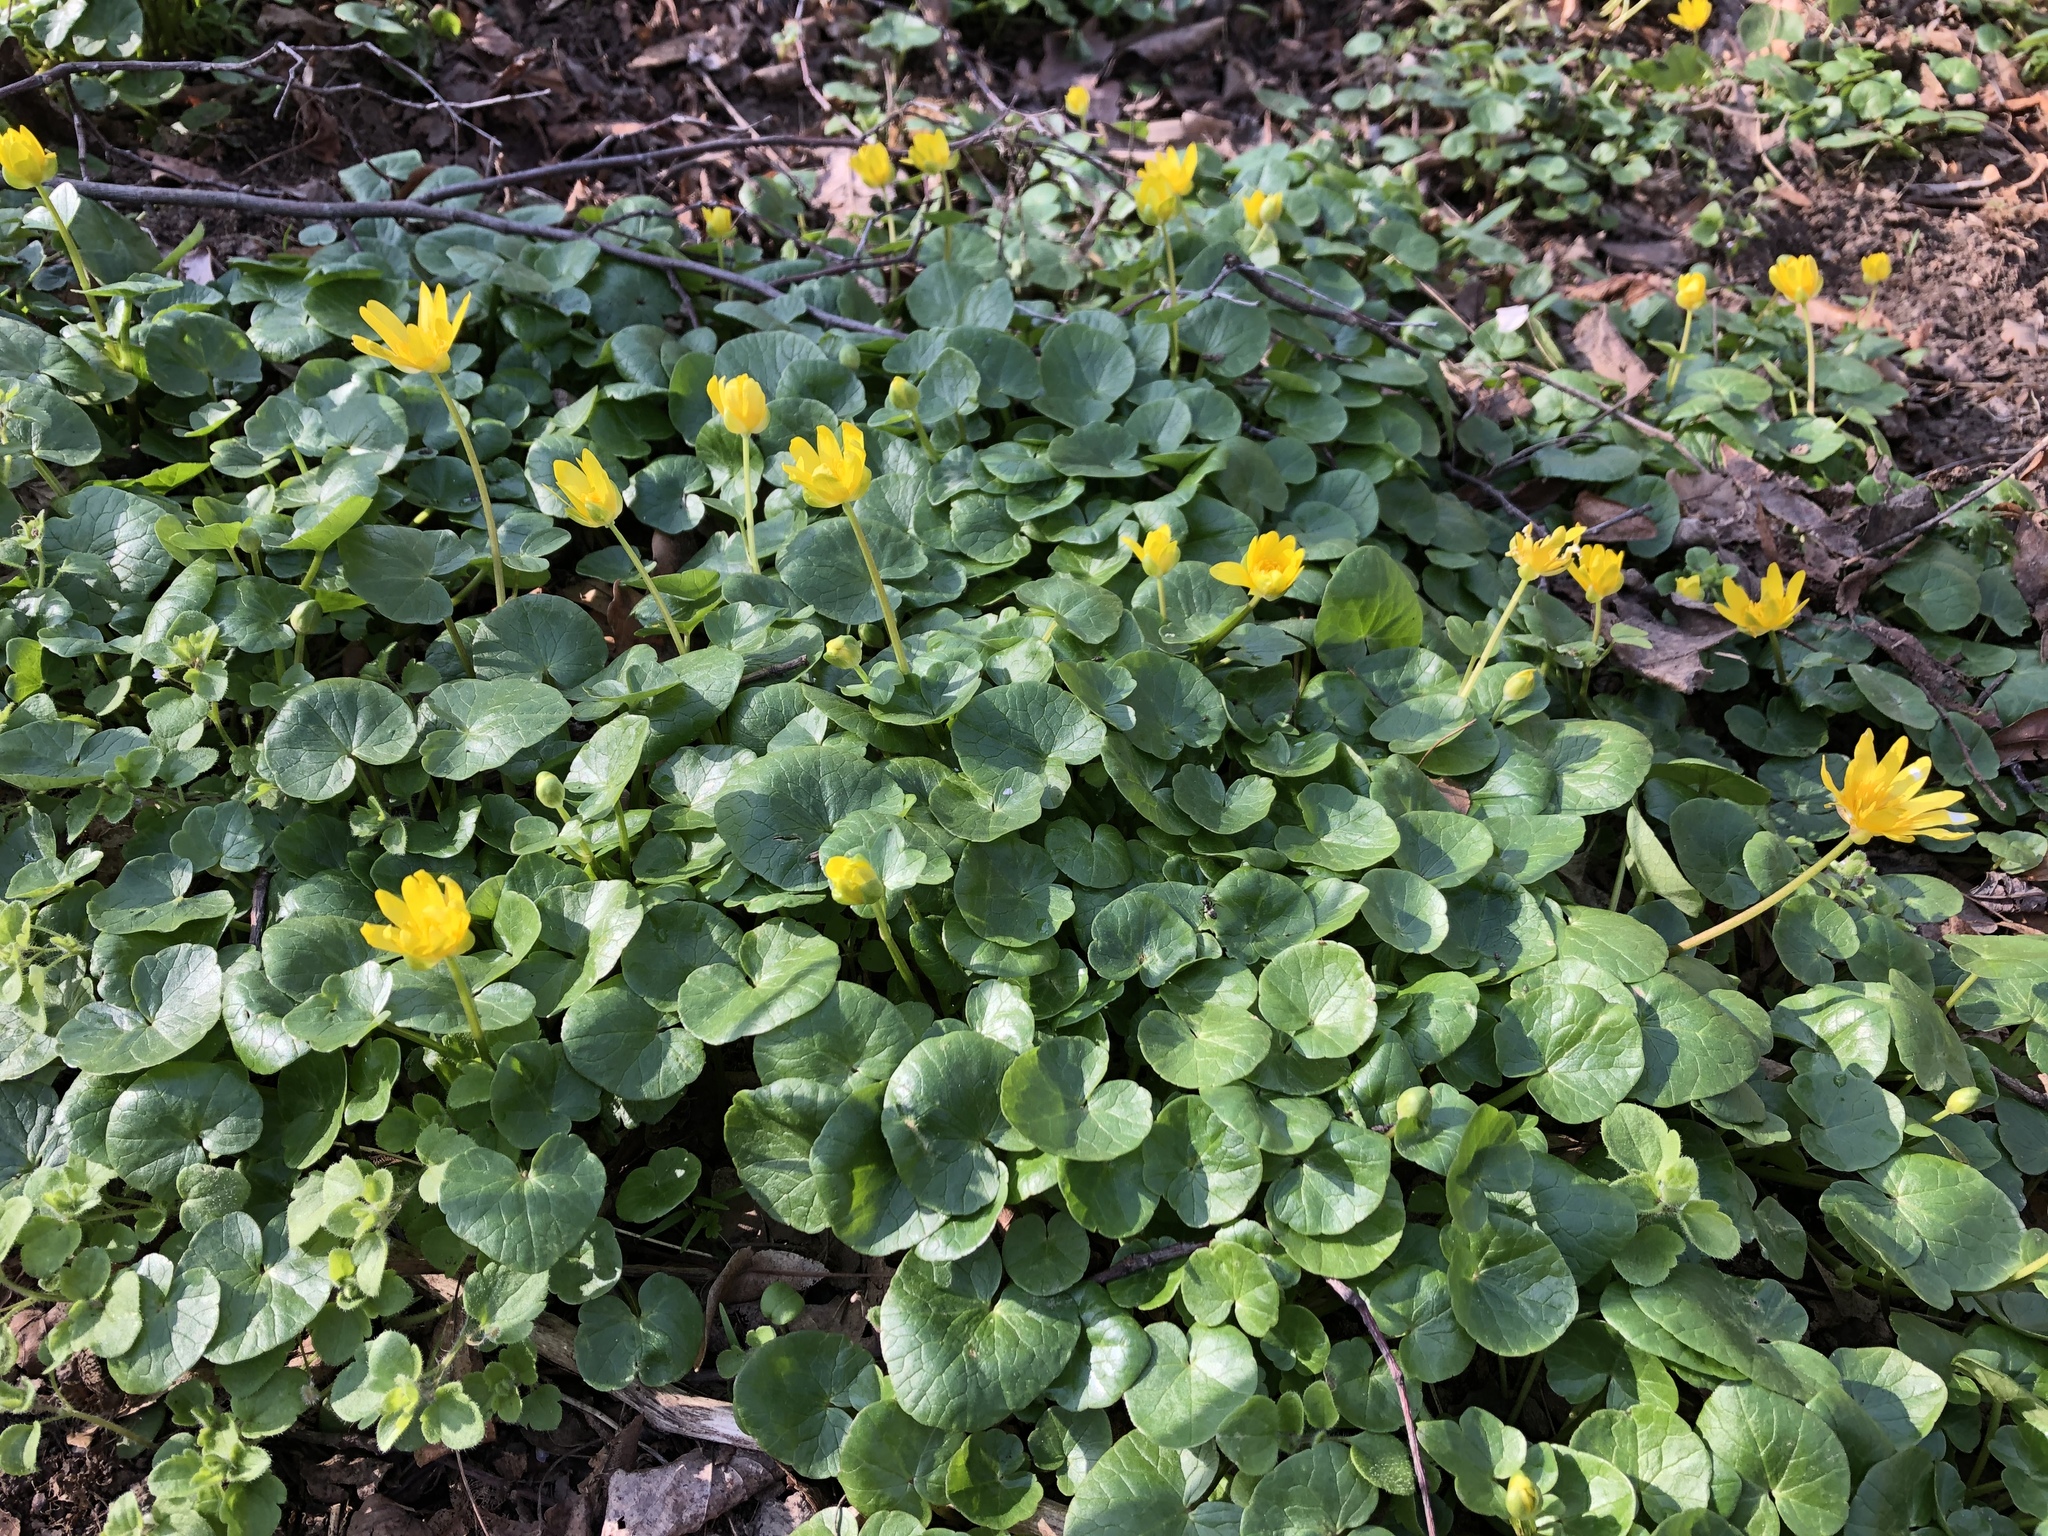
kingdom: Plantae
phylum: Tracheophyta
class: Magnoliopsida
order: Ranunculales
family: Ranunculaceae
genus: Ficaria
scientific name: Ficaria verna
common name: Lesser celandine
